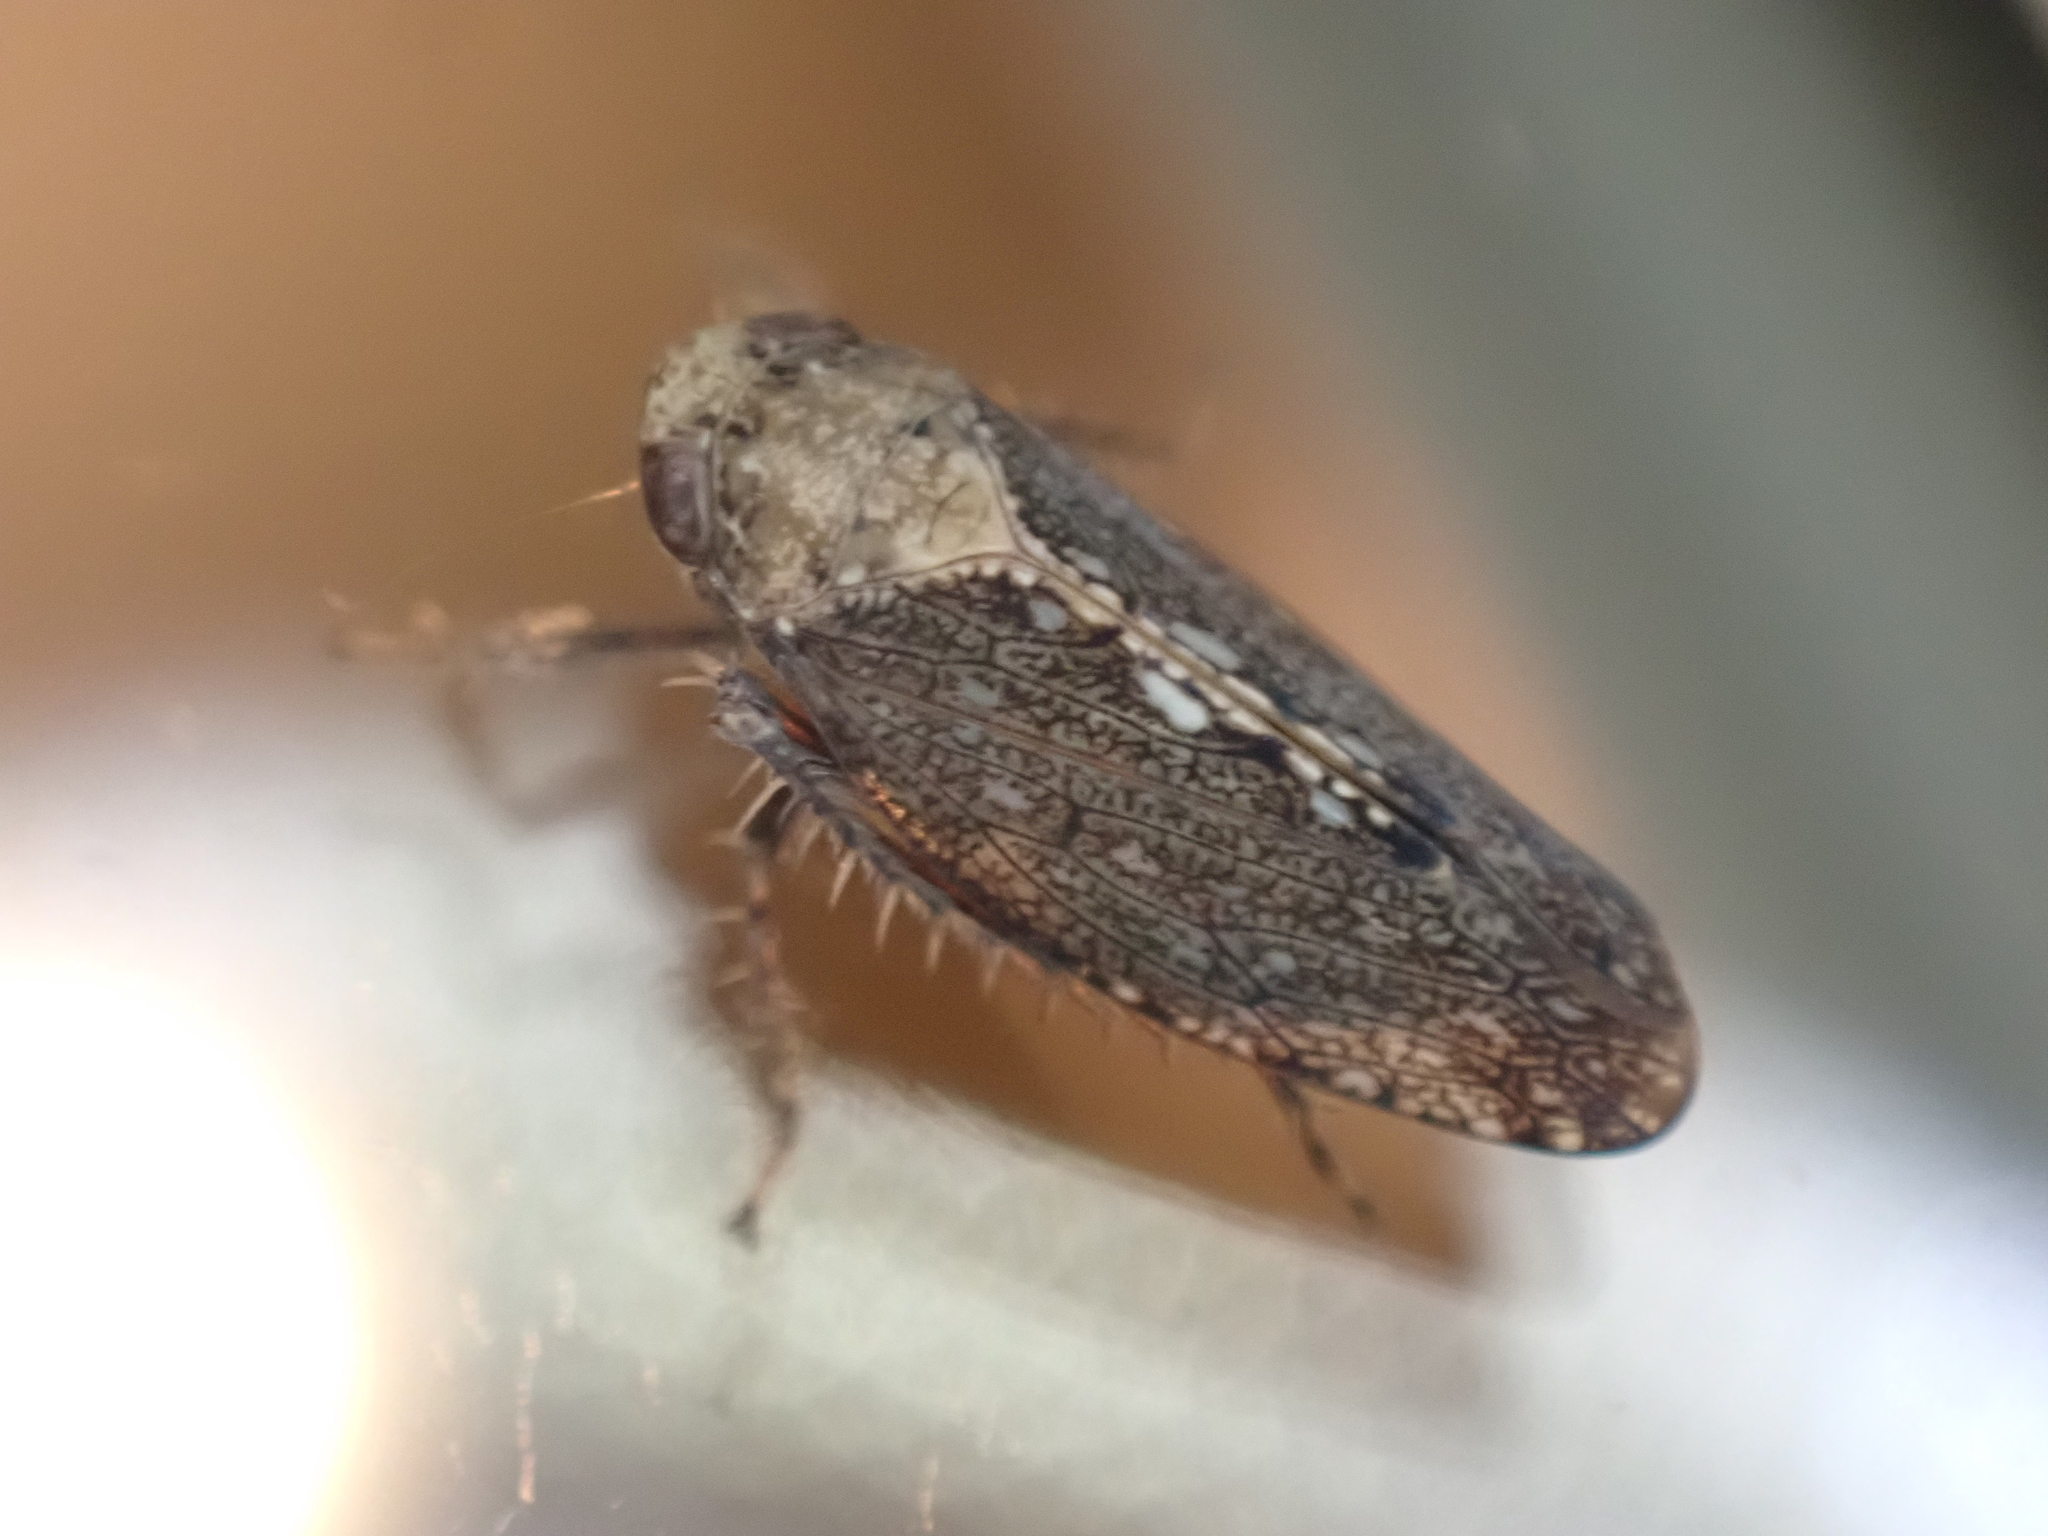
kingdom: Animalia
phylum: Arthropoda
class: Insecta
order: Hemiptera
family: Cicadellidae
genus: Excultanus
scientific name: Excultanus excultus
